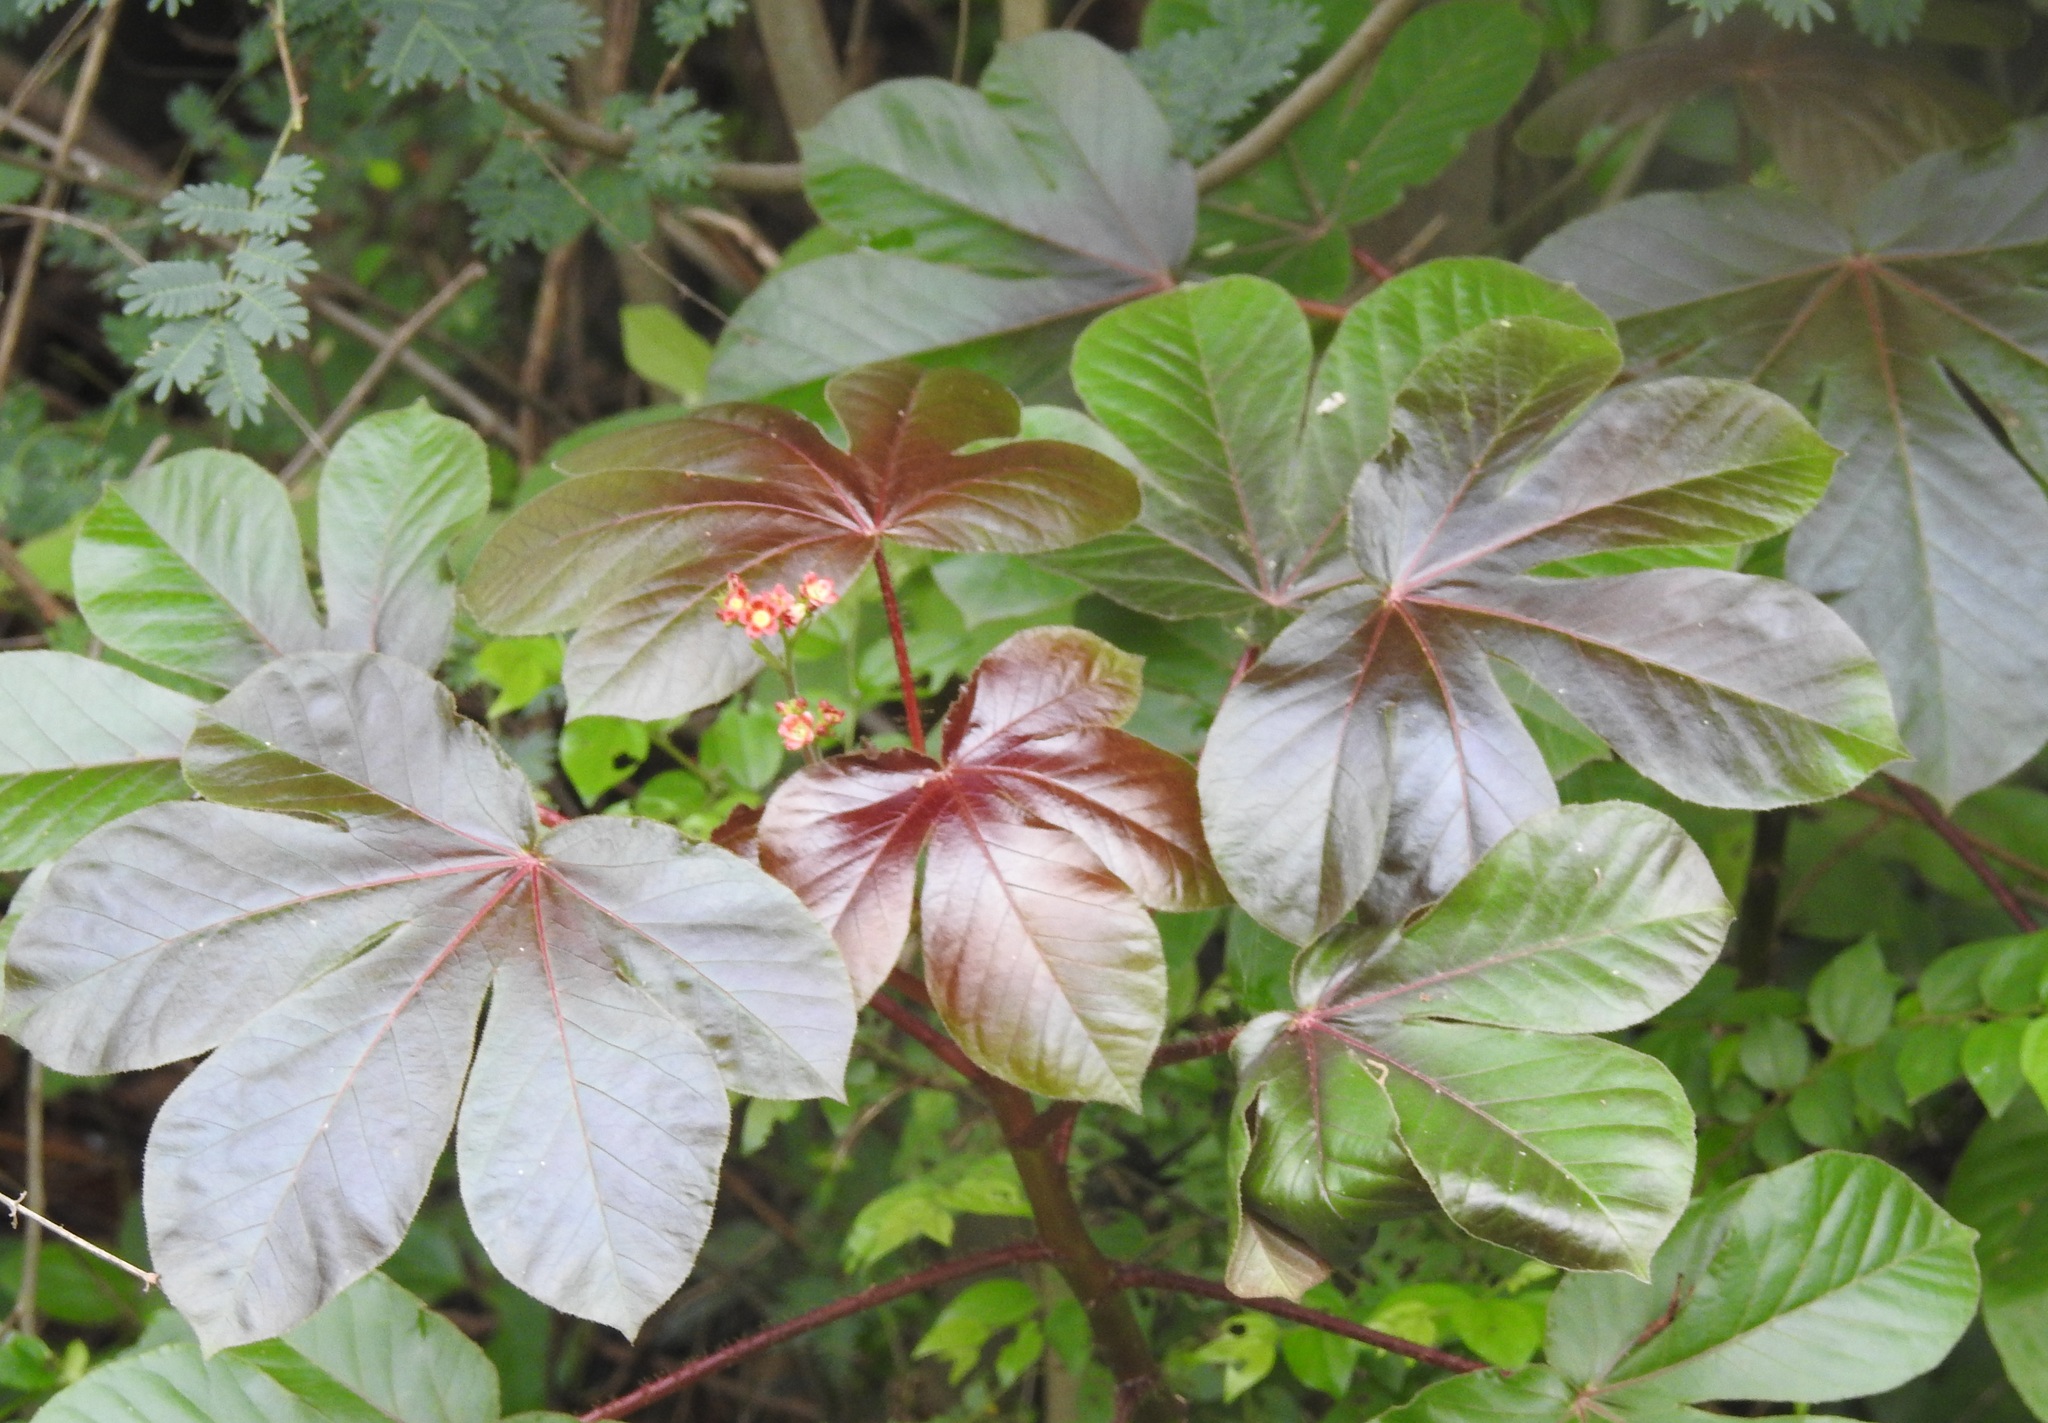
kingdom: Plantae
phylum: Tracheophyta
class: Magnoliopsida
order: Malpighiales
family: Euphorbiaceae
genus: Jatropha
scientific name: Jatropha gossypiifolia
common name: Bellyache bush
